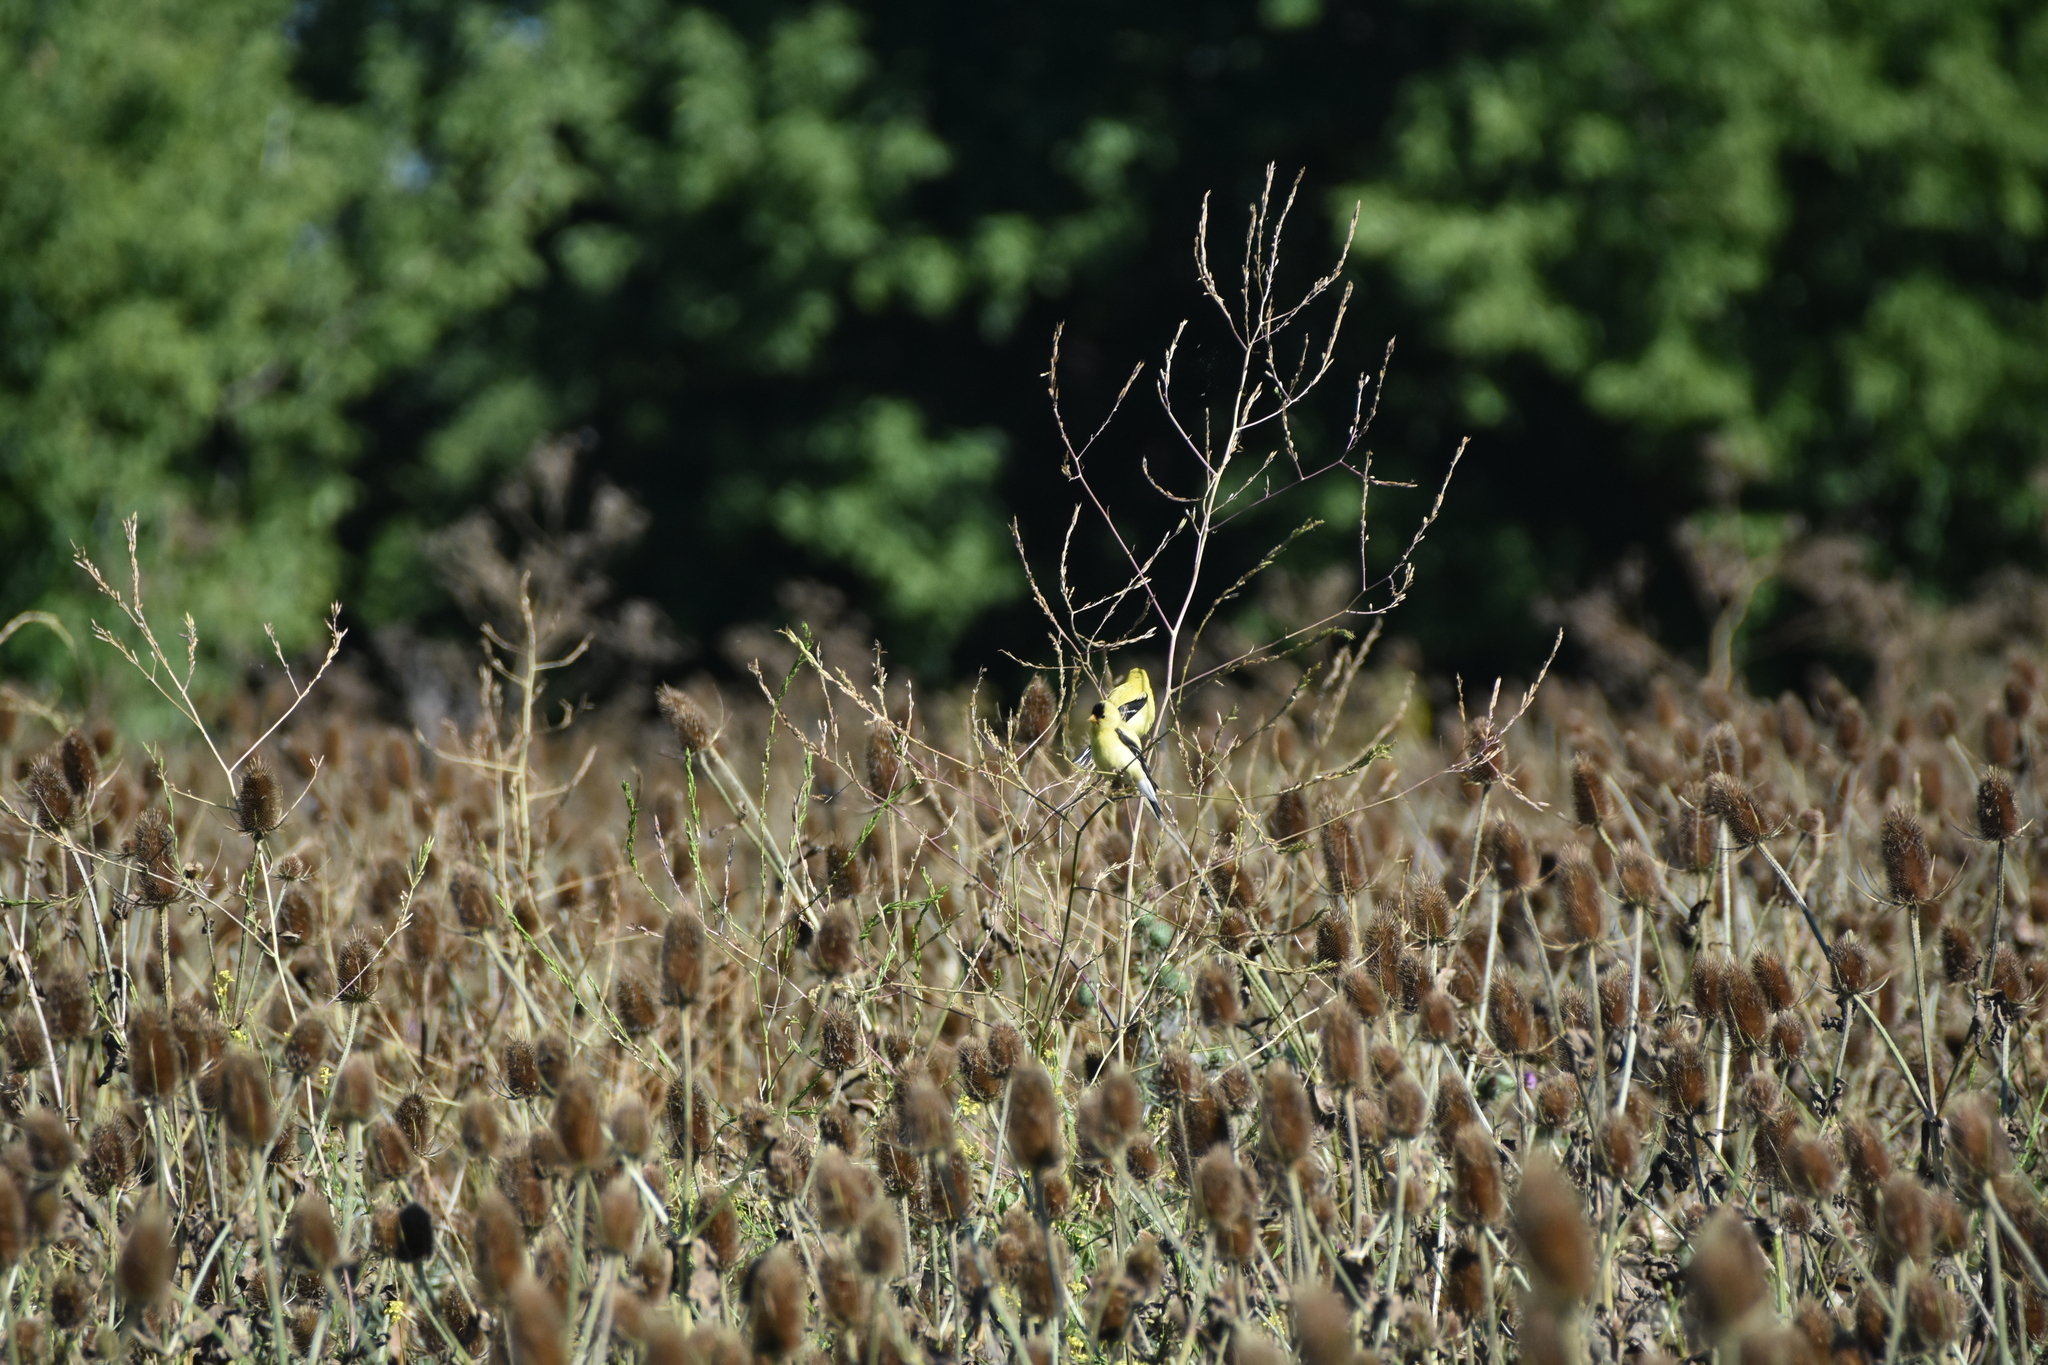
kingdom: Animalia
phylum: Chordata
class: Aves
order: Passeriformes
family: Fringillidae
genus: Spinus
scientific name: Spinus tristis
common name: American goldfinch
